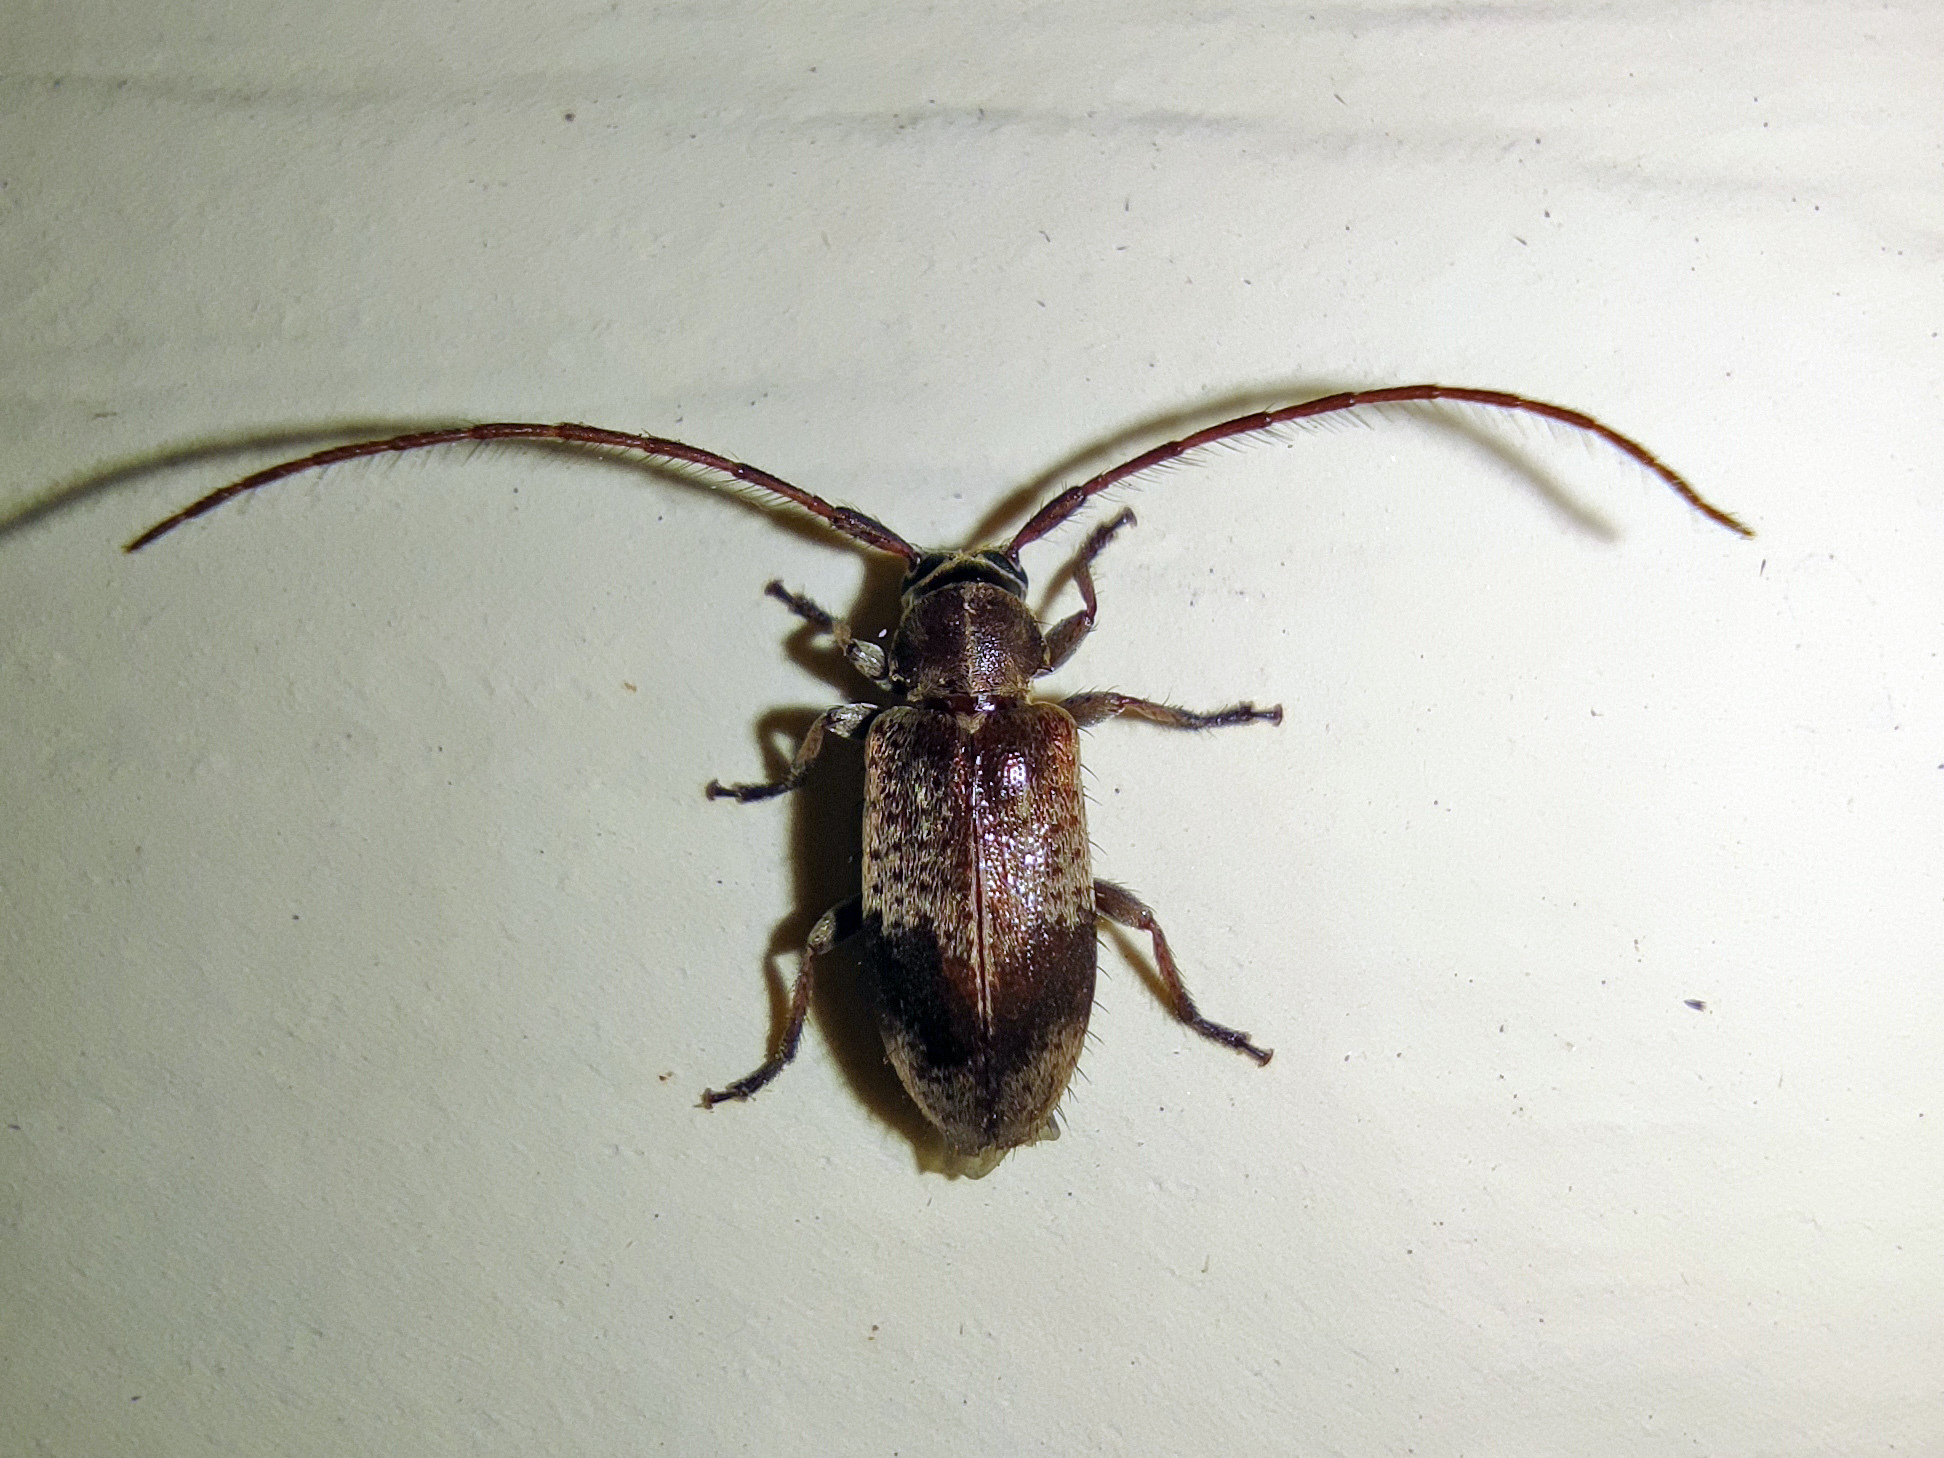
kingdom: Animalia
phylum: Arthropoda
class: Insecta
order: Coleoptera
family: Cerambycidae
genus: Exocentrus
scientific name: Exocentrus punctipennis
